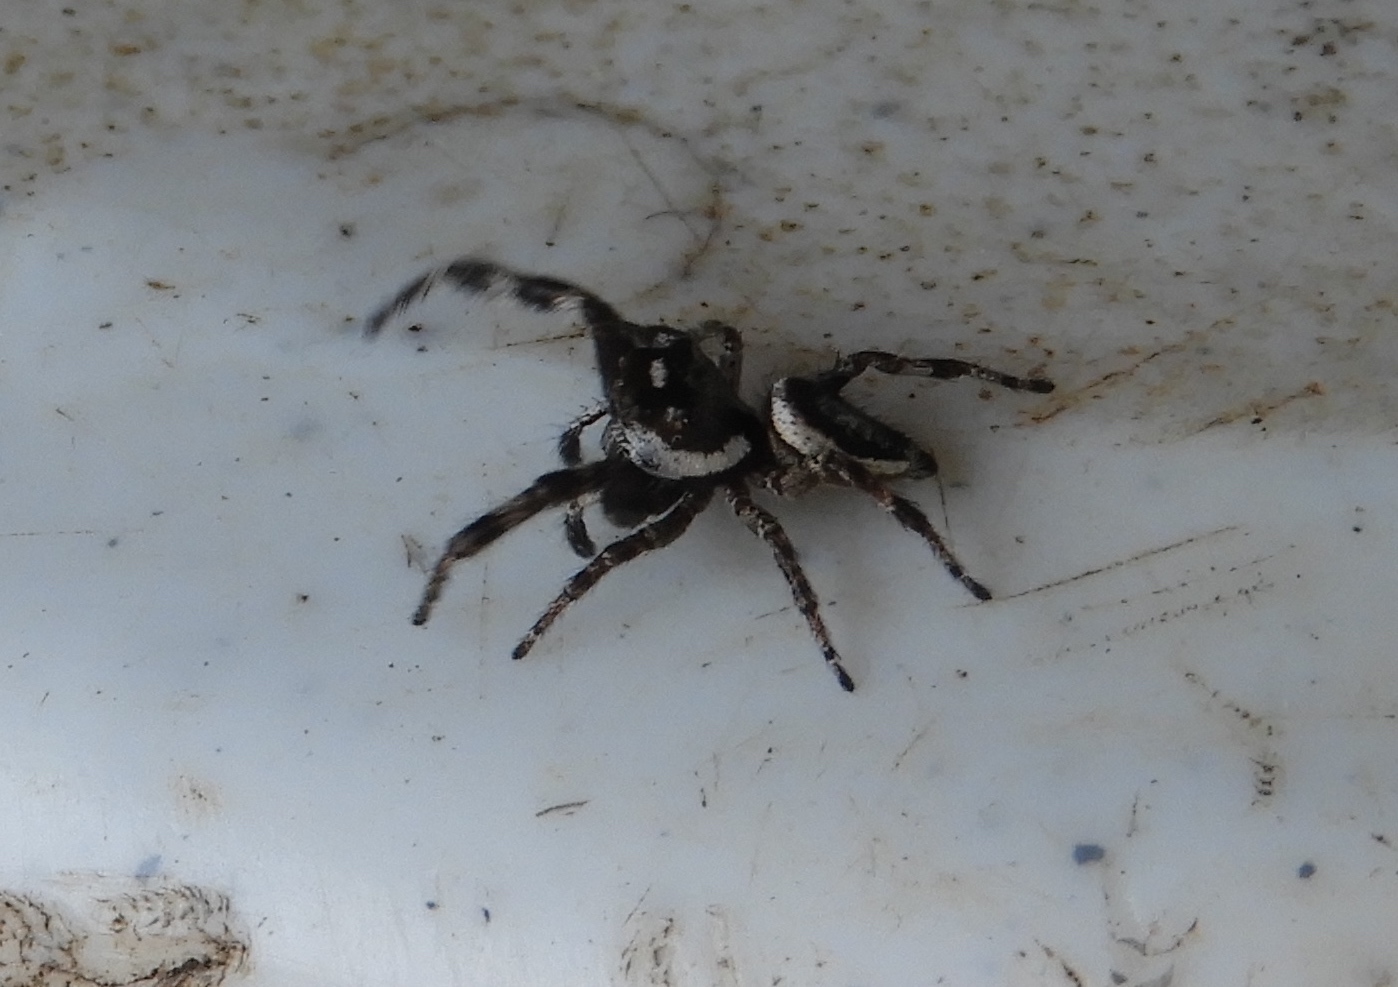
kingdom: Animalia
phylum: Arthropoda
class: Arachnida
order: Araneae
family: Salticidae
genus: Dendryphantes
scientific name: Dendryphantes zygoballoides
